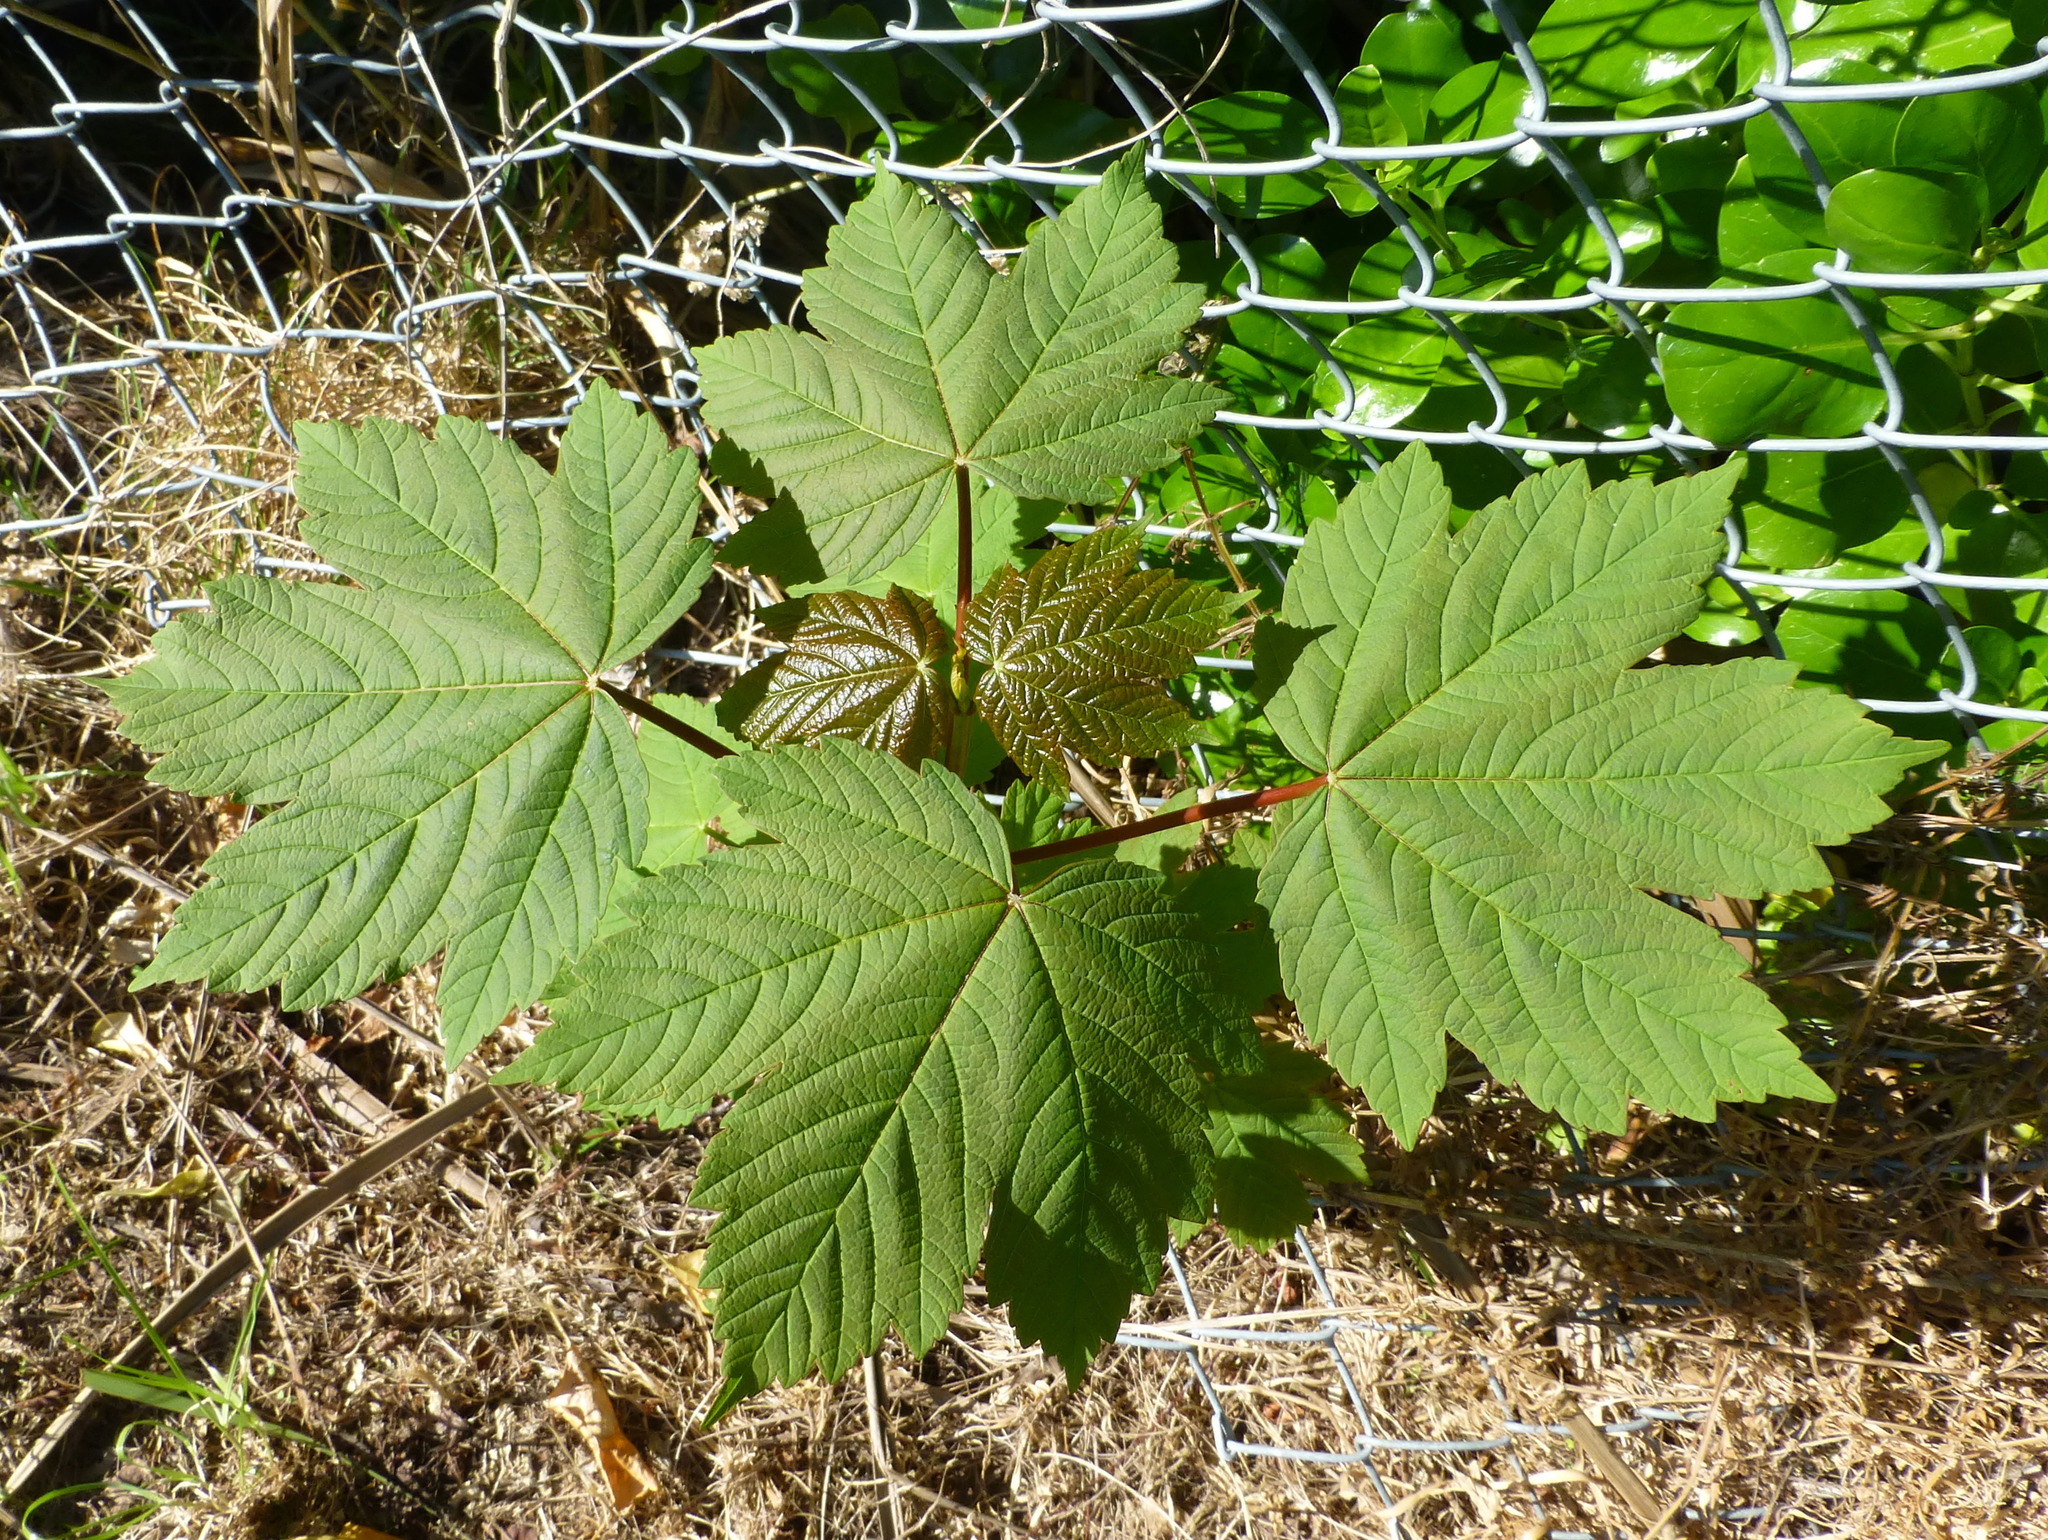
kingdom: Plantae
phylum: Tracheophyta
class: Magnoliopsida
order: Sapindales
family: Sapindaceae
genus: Acer
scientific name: Acer pseudoplatanus
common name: Sycamore
